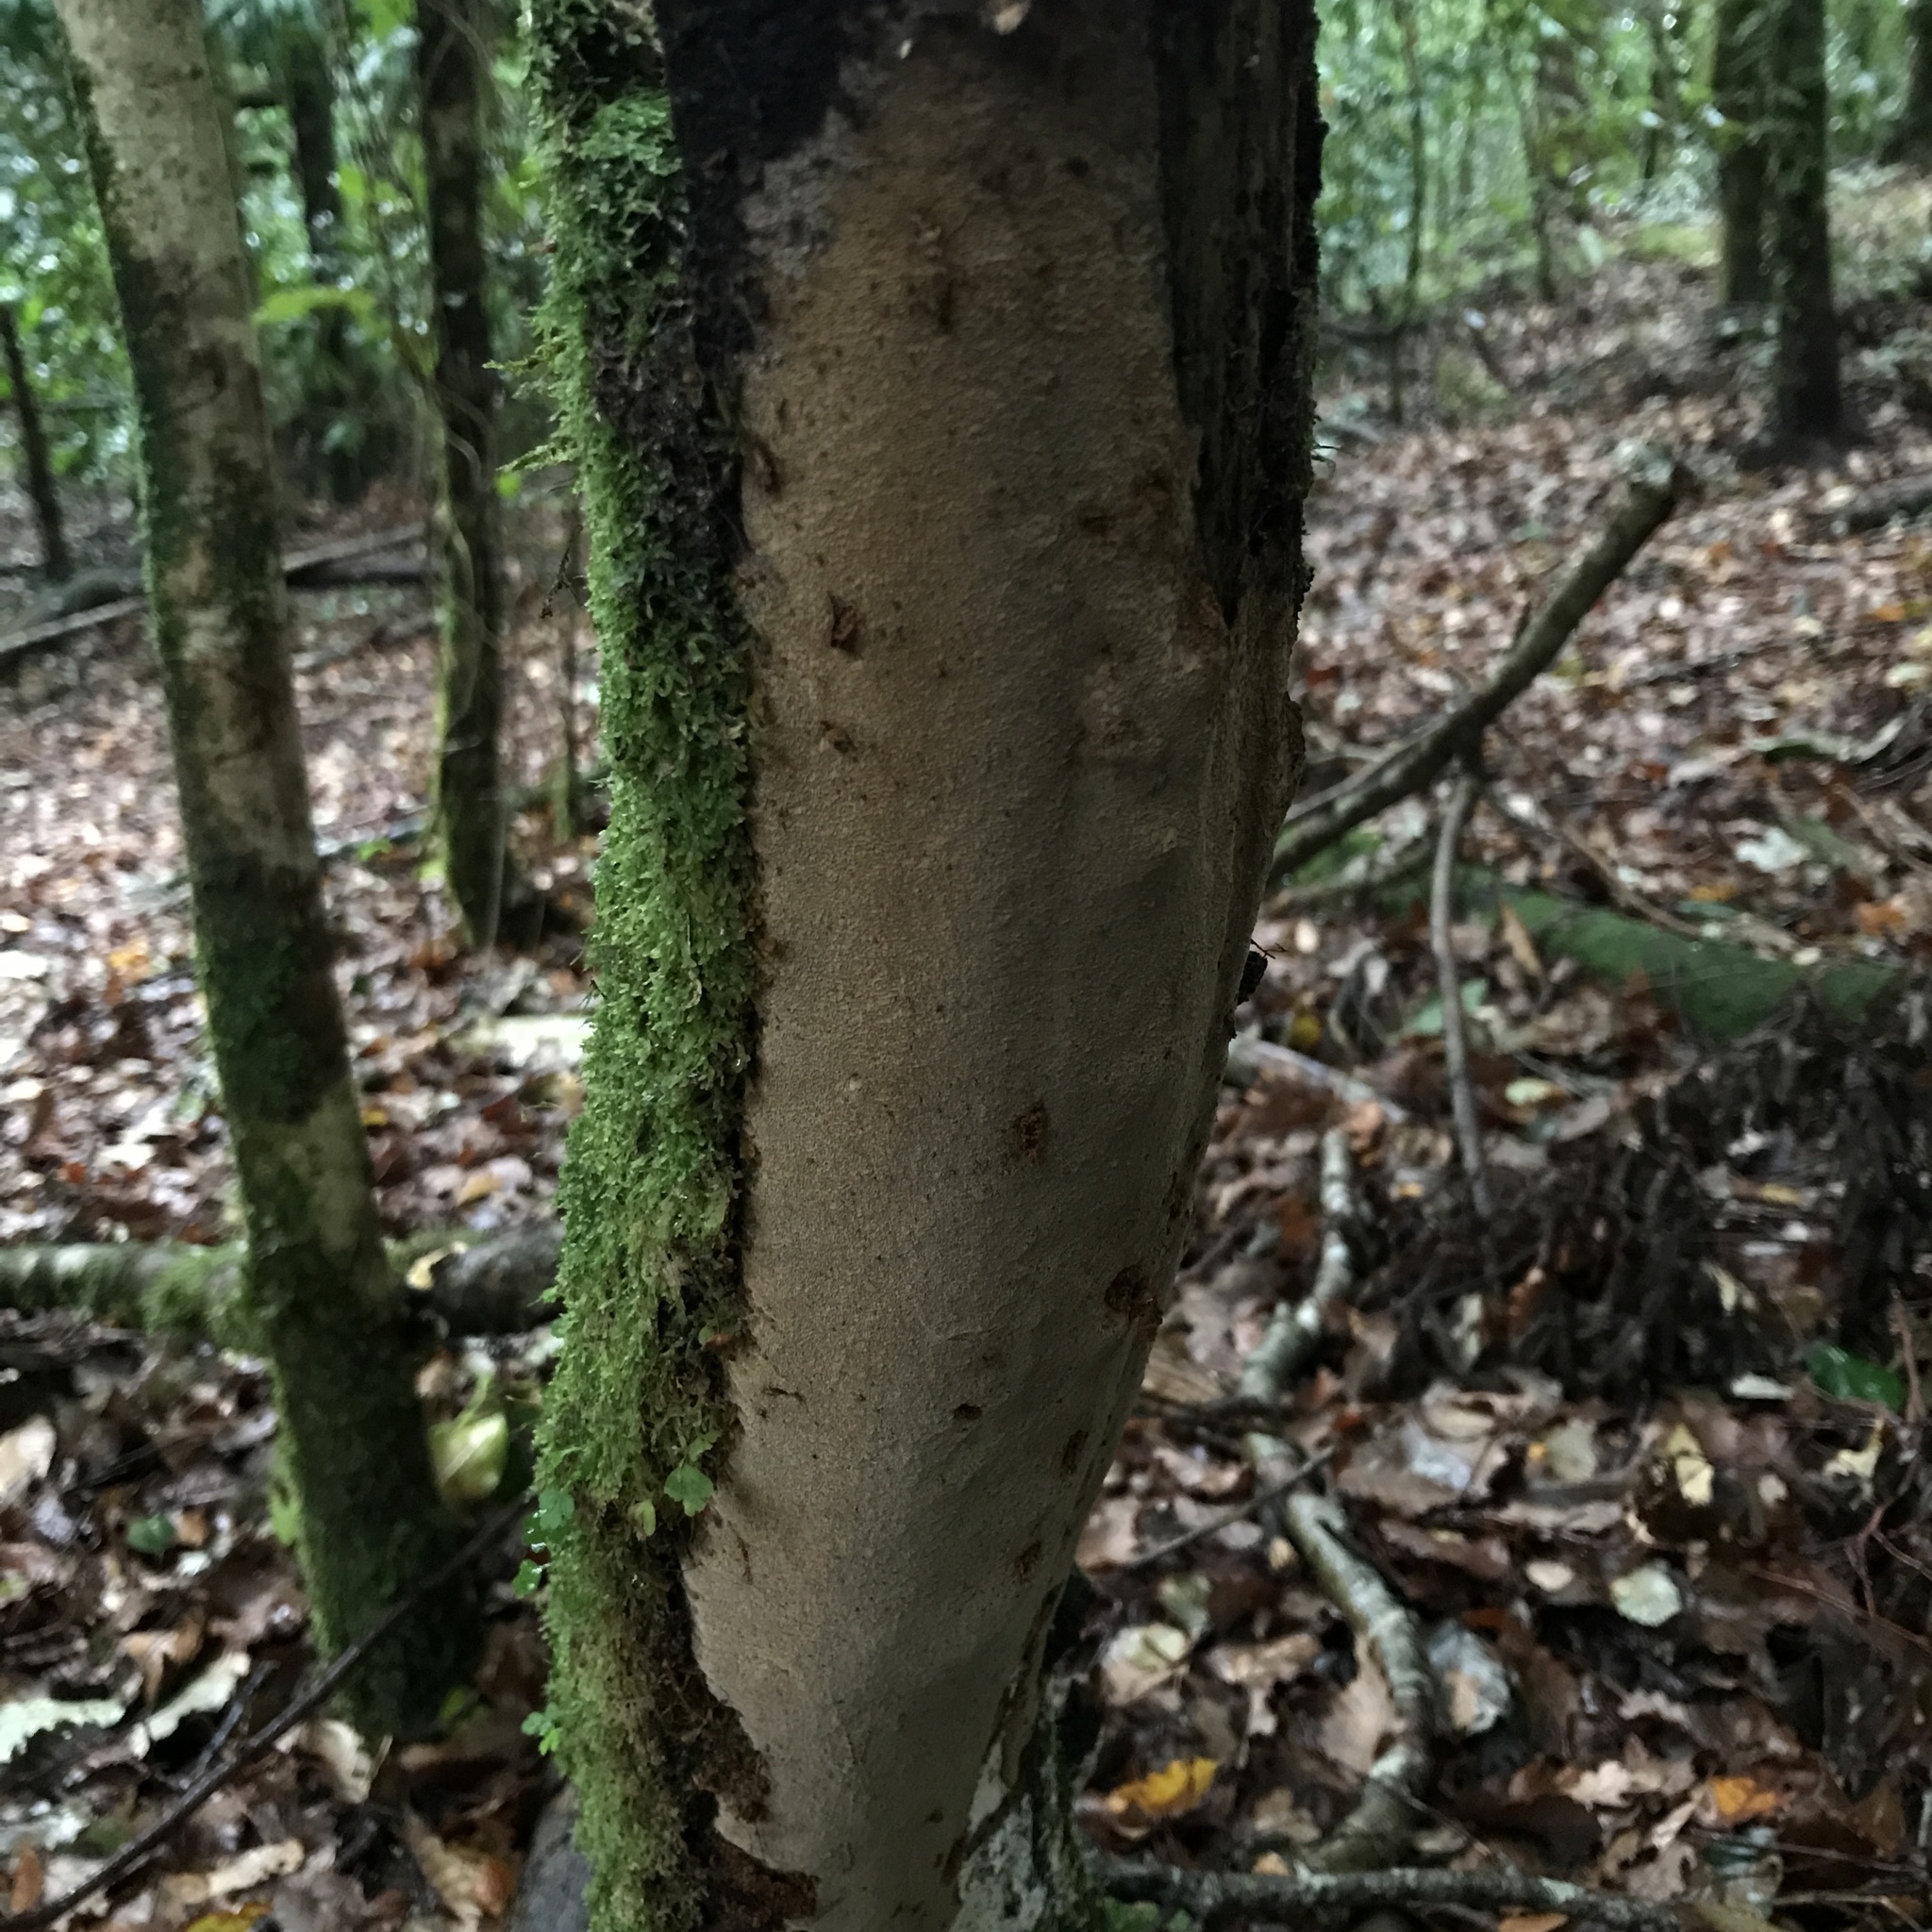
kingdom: Fungi
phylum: Basidiomycota
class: Agaricomycetes
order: Hymenochaetales
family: Hymenochaetaceae
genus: Fomitiporella
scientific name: Fomitiporella coruscans
